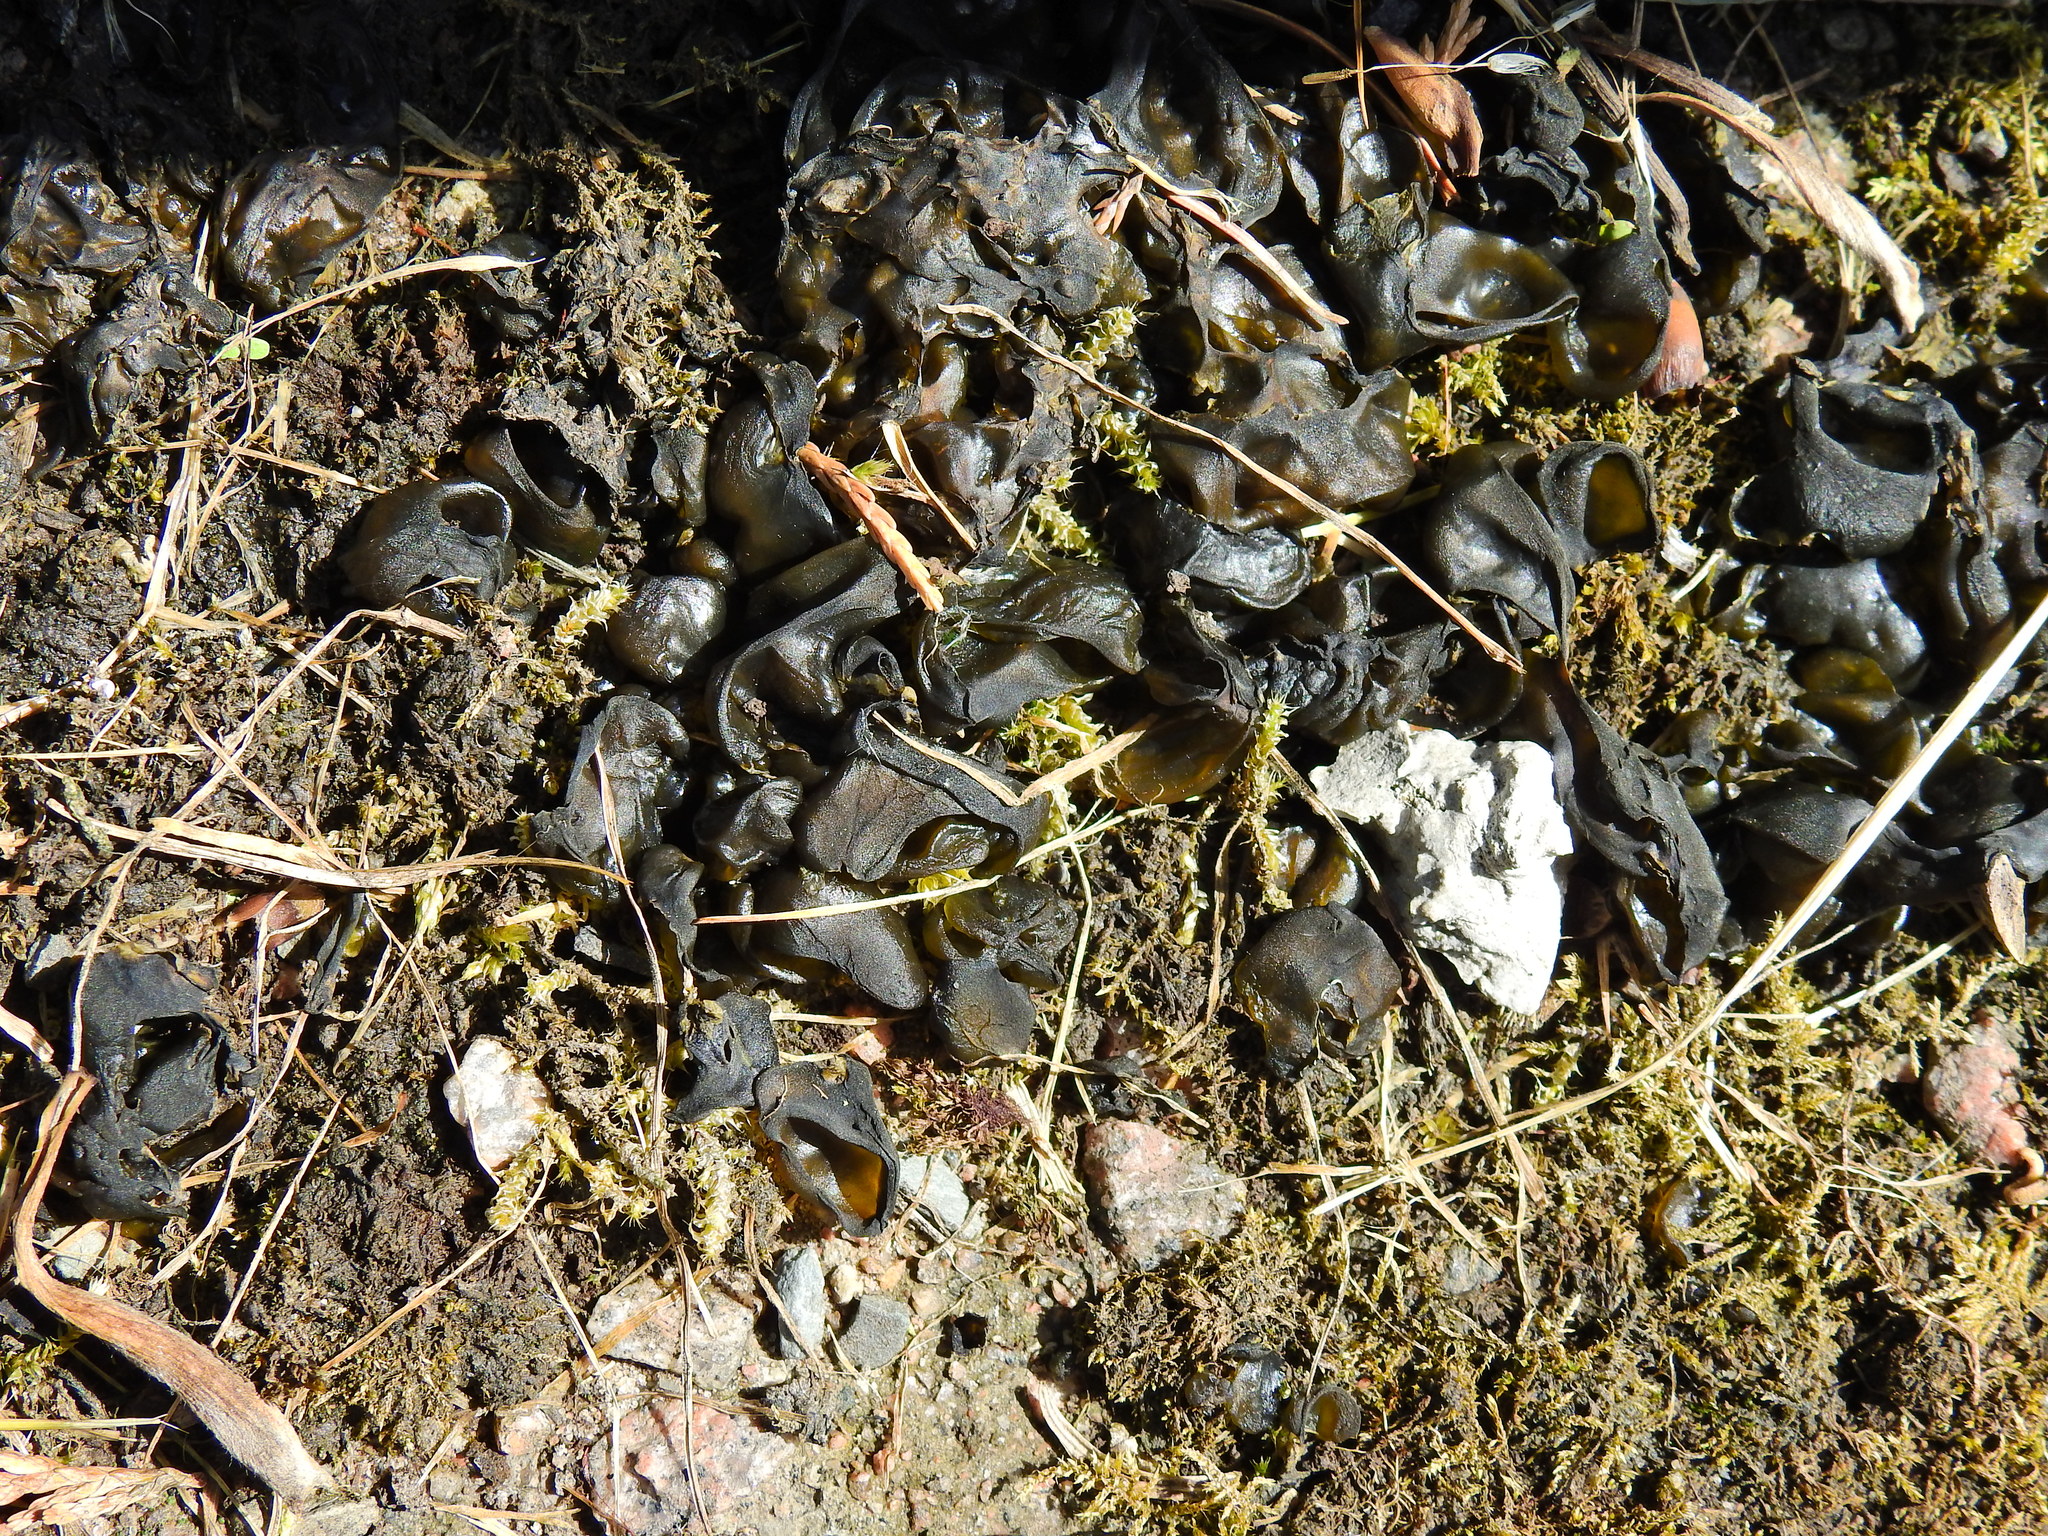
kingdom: Bacteria
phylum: Cyanobacteria
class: Cyanobacteriia
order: Cyanobacteriales
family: Nostocaceae
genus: Nostoc
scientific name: Nostoc commune
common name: Star jelly
